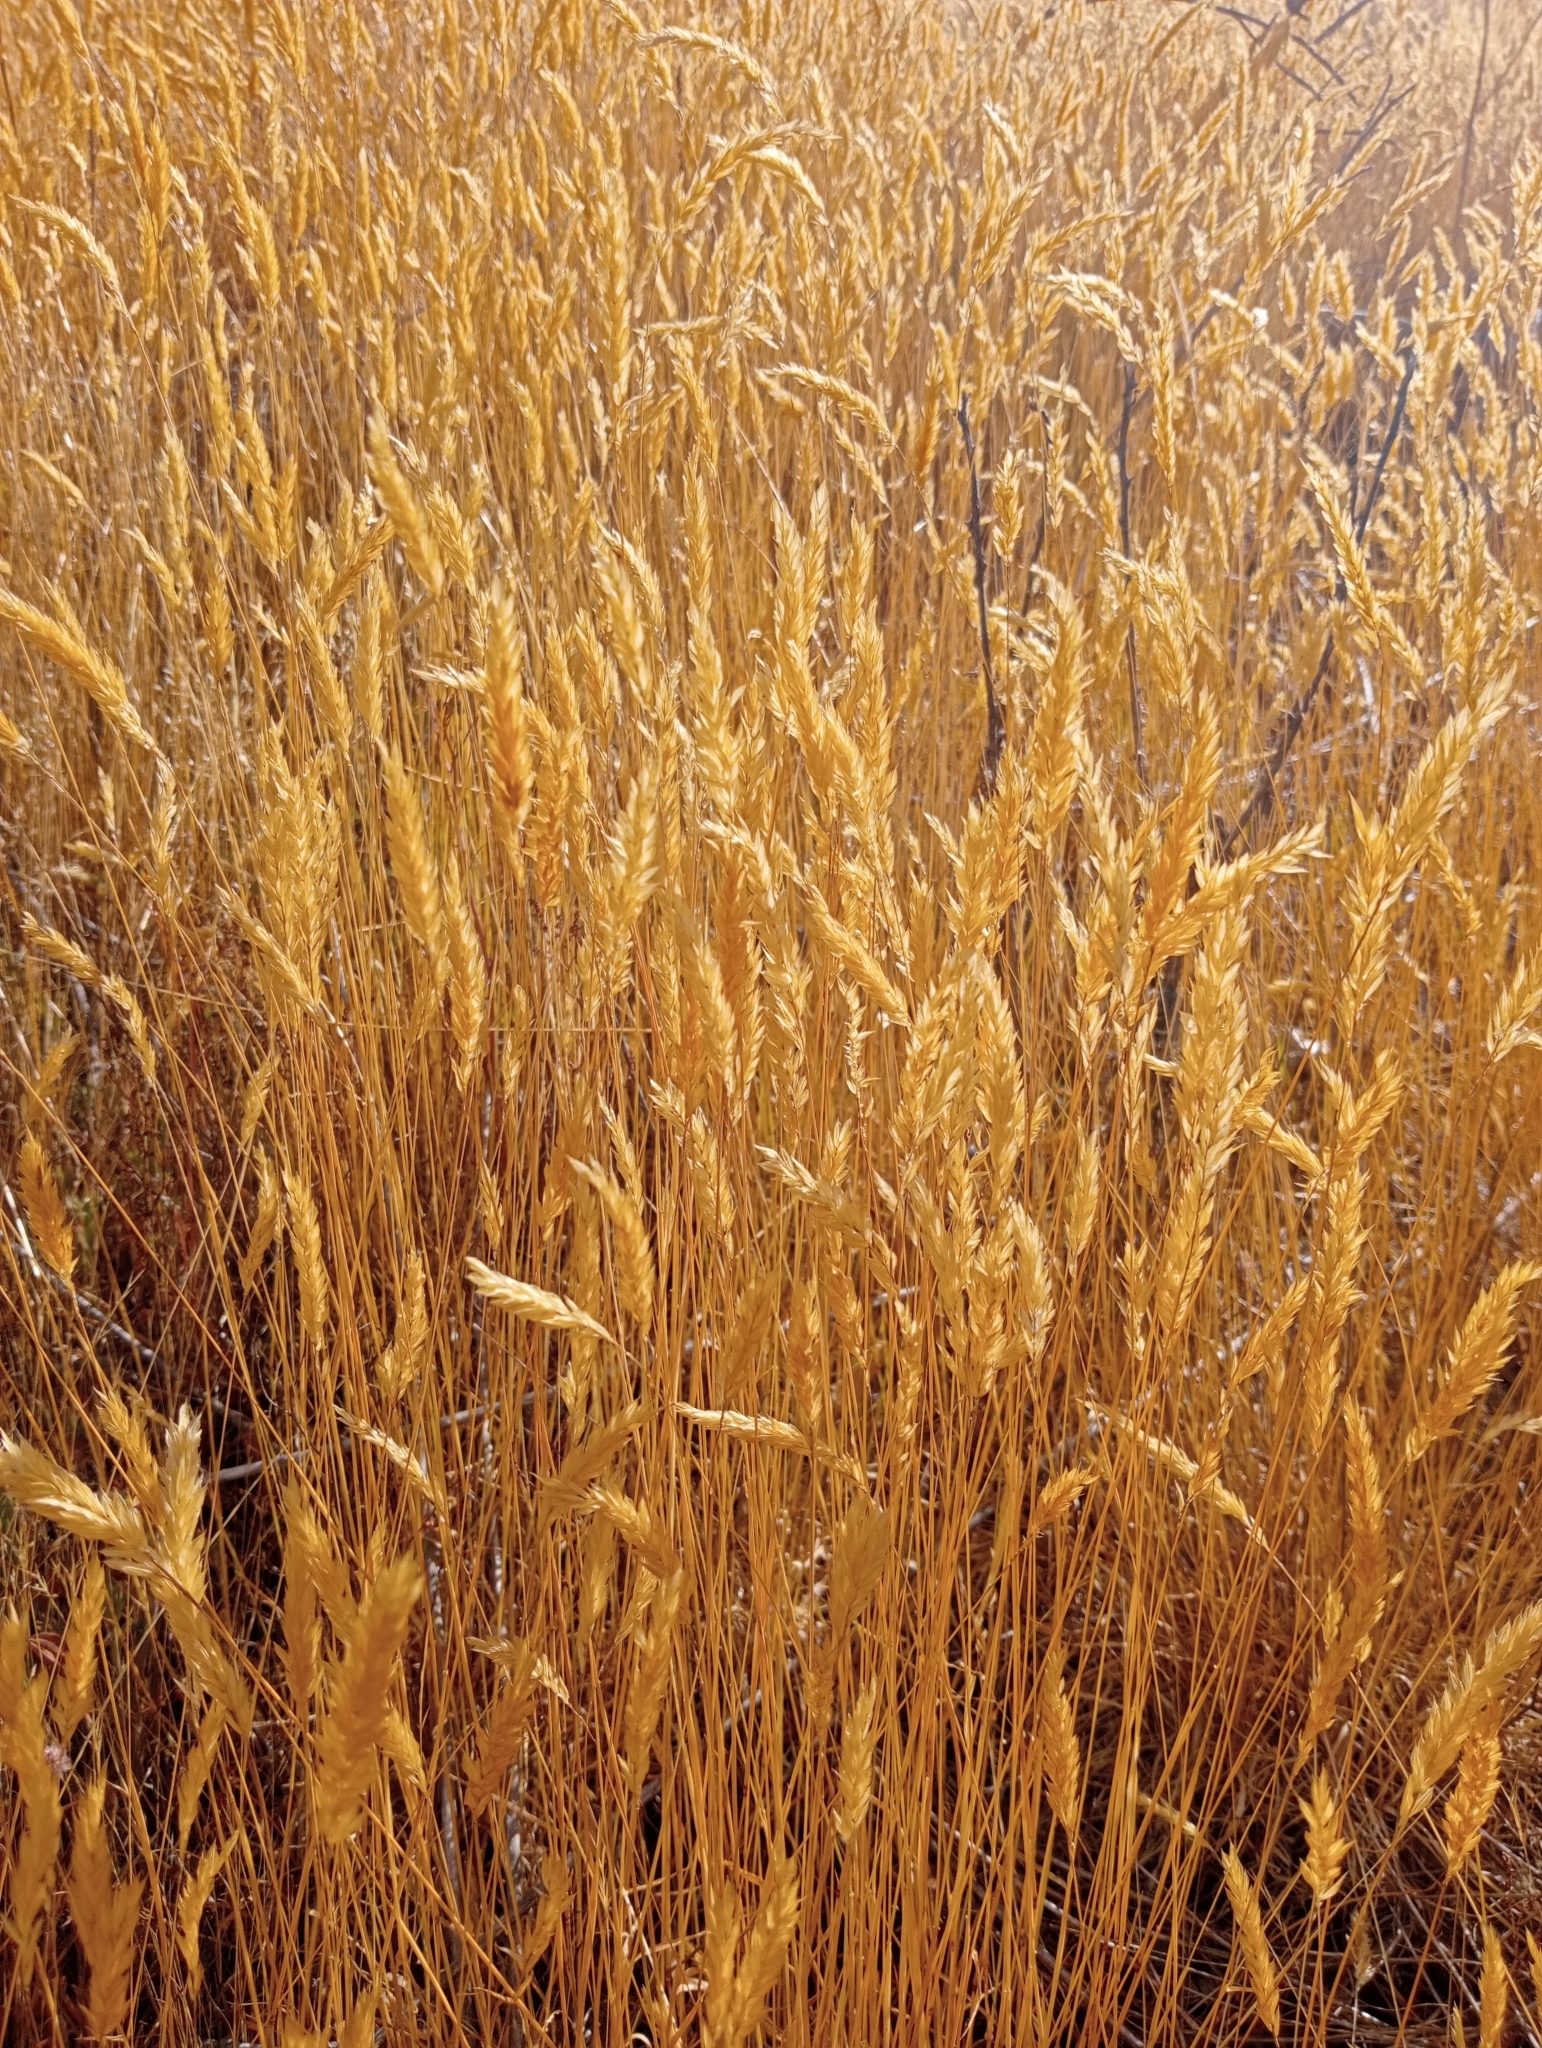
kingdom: Plantae
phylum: Tracheophyta
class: Liliopsida
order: Poales
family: Poaceae
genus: Anthoxanthum
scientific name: Anthoxanthum odoratum
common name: Sweet vernalgrass
